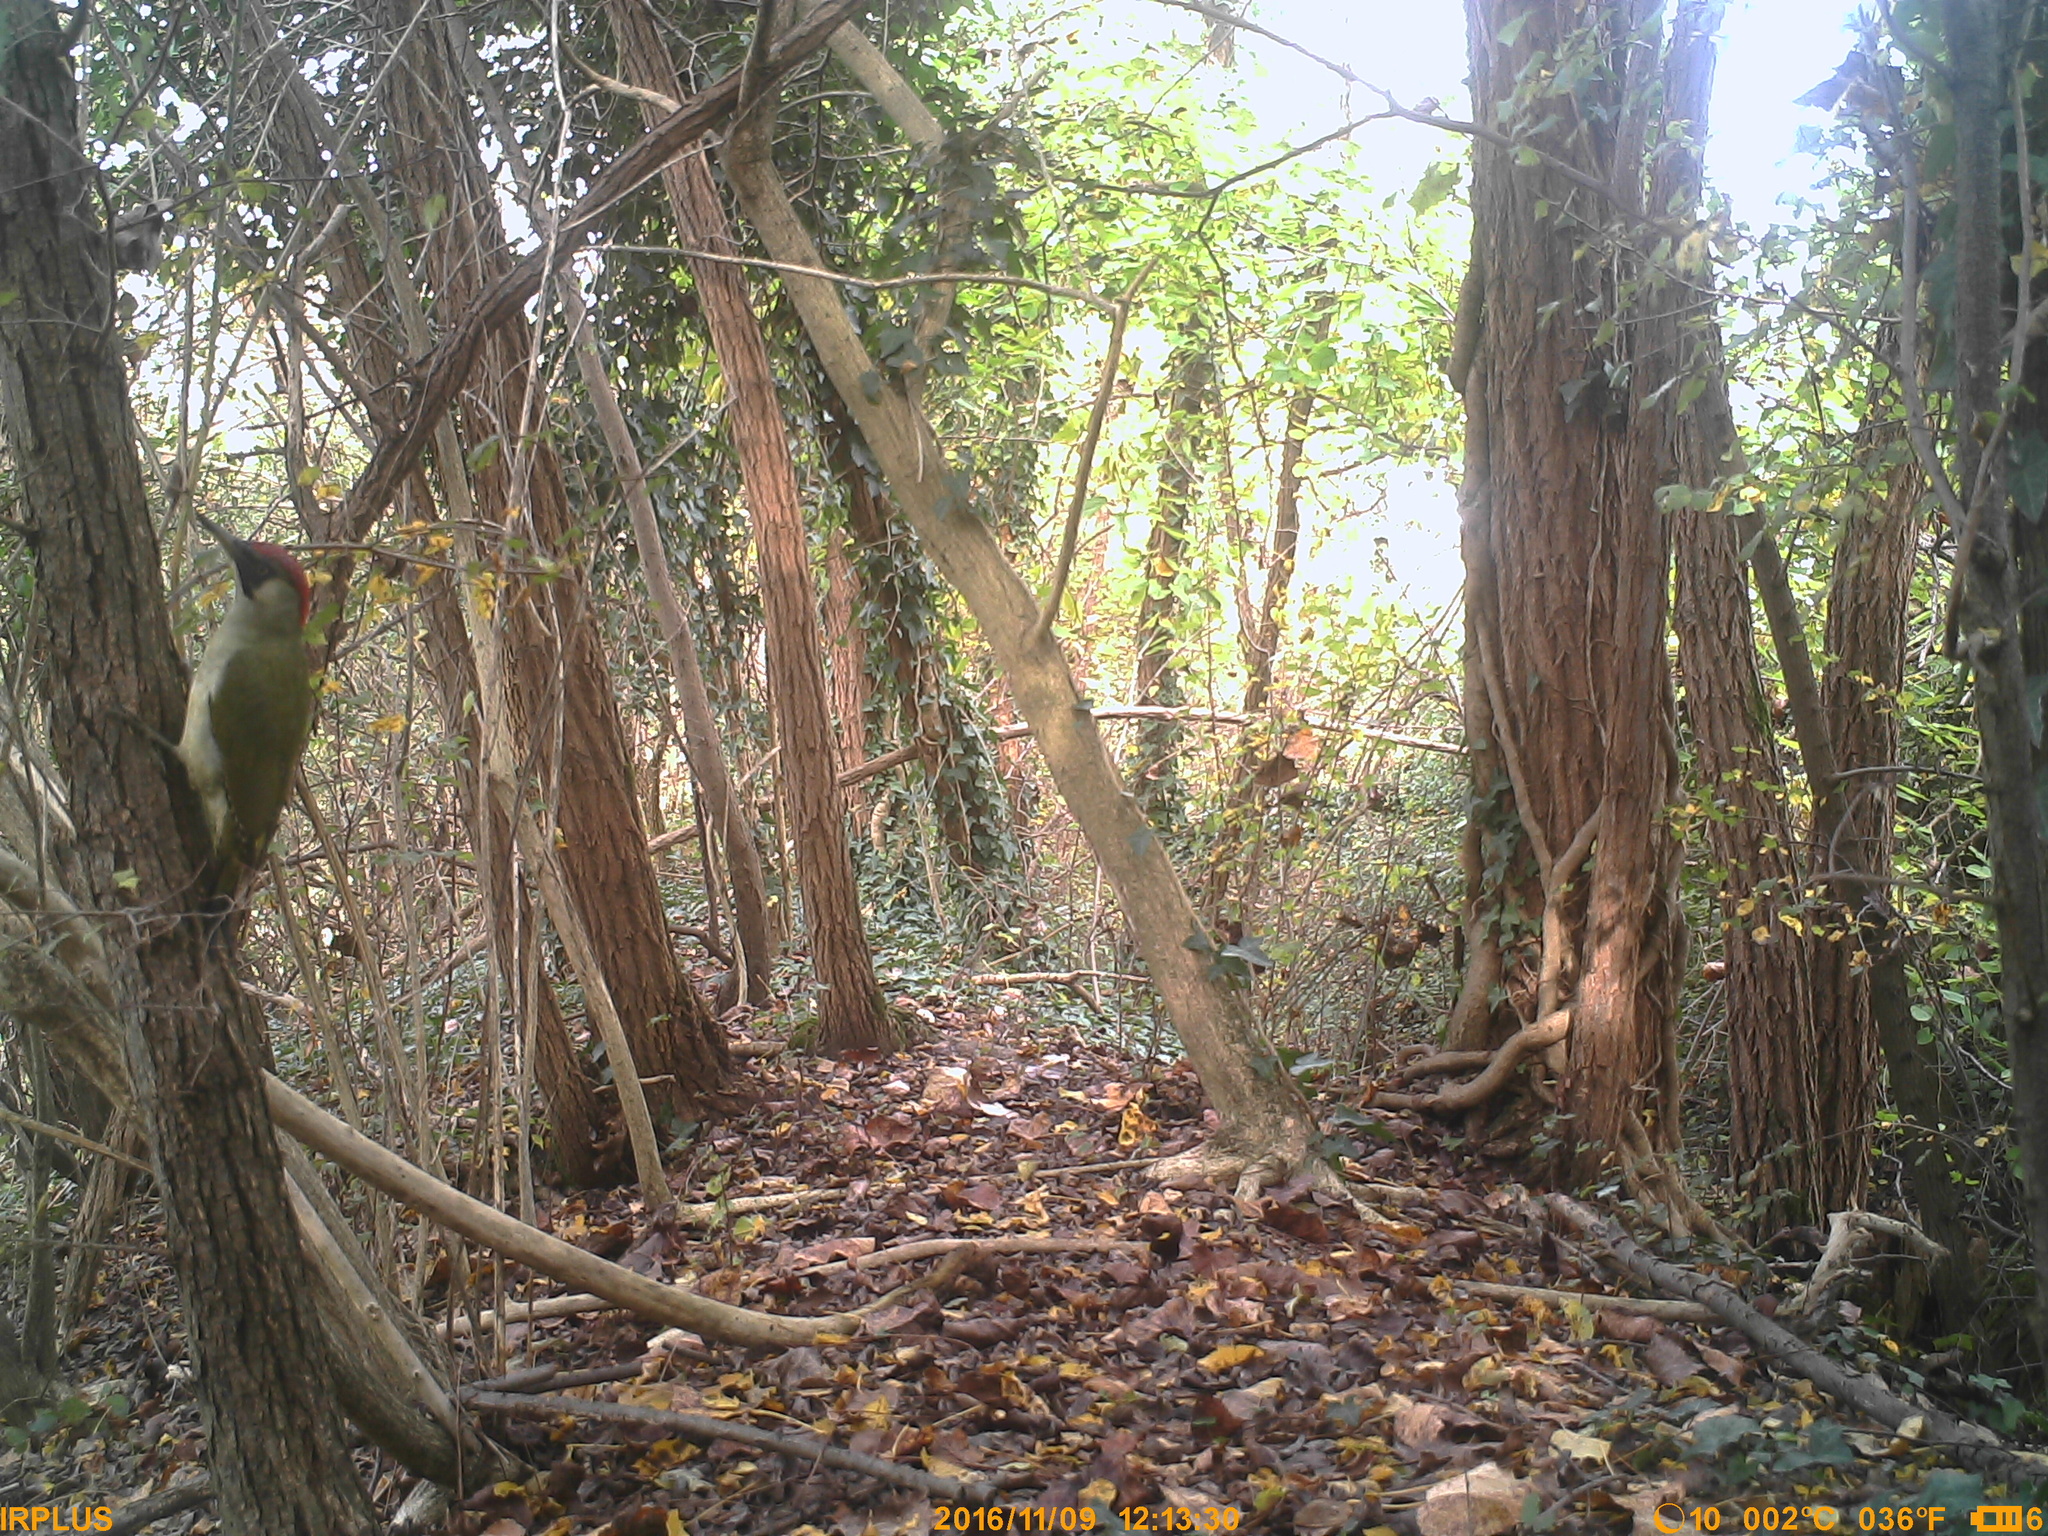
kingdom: Animalia
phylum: Chordata
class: Aves
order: Piciformes
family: Picidae
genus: Picus
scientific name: Picus viridis
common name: European green woodpecker
